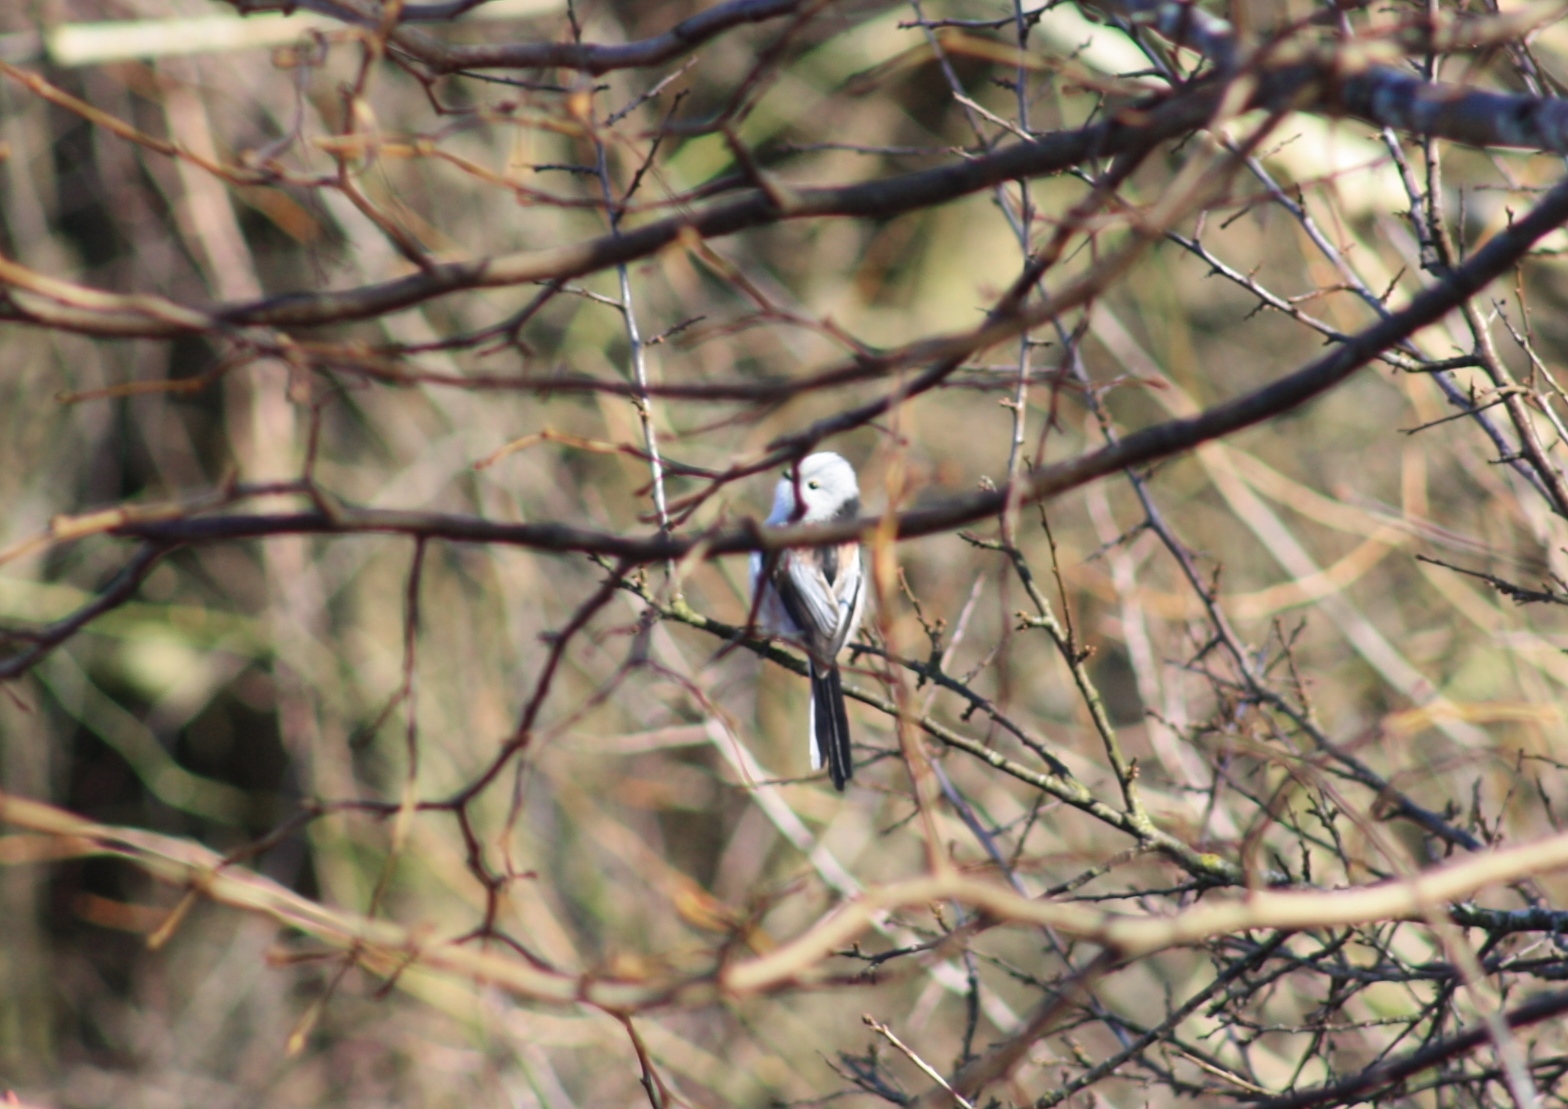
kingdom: Animalia
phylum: Chordata
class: Aves
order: Passeriformes
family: Aegithalidae
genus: Aegithalos
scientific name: Aegithalos caudatus
